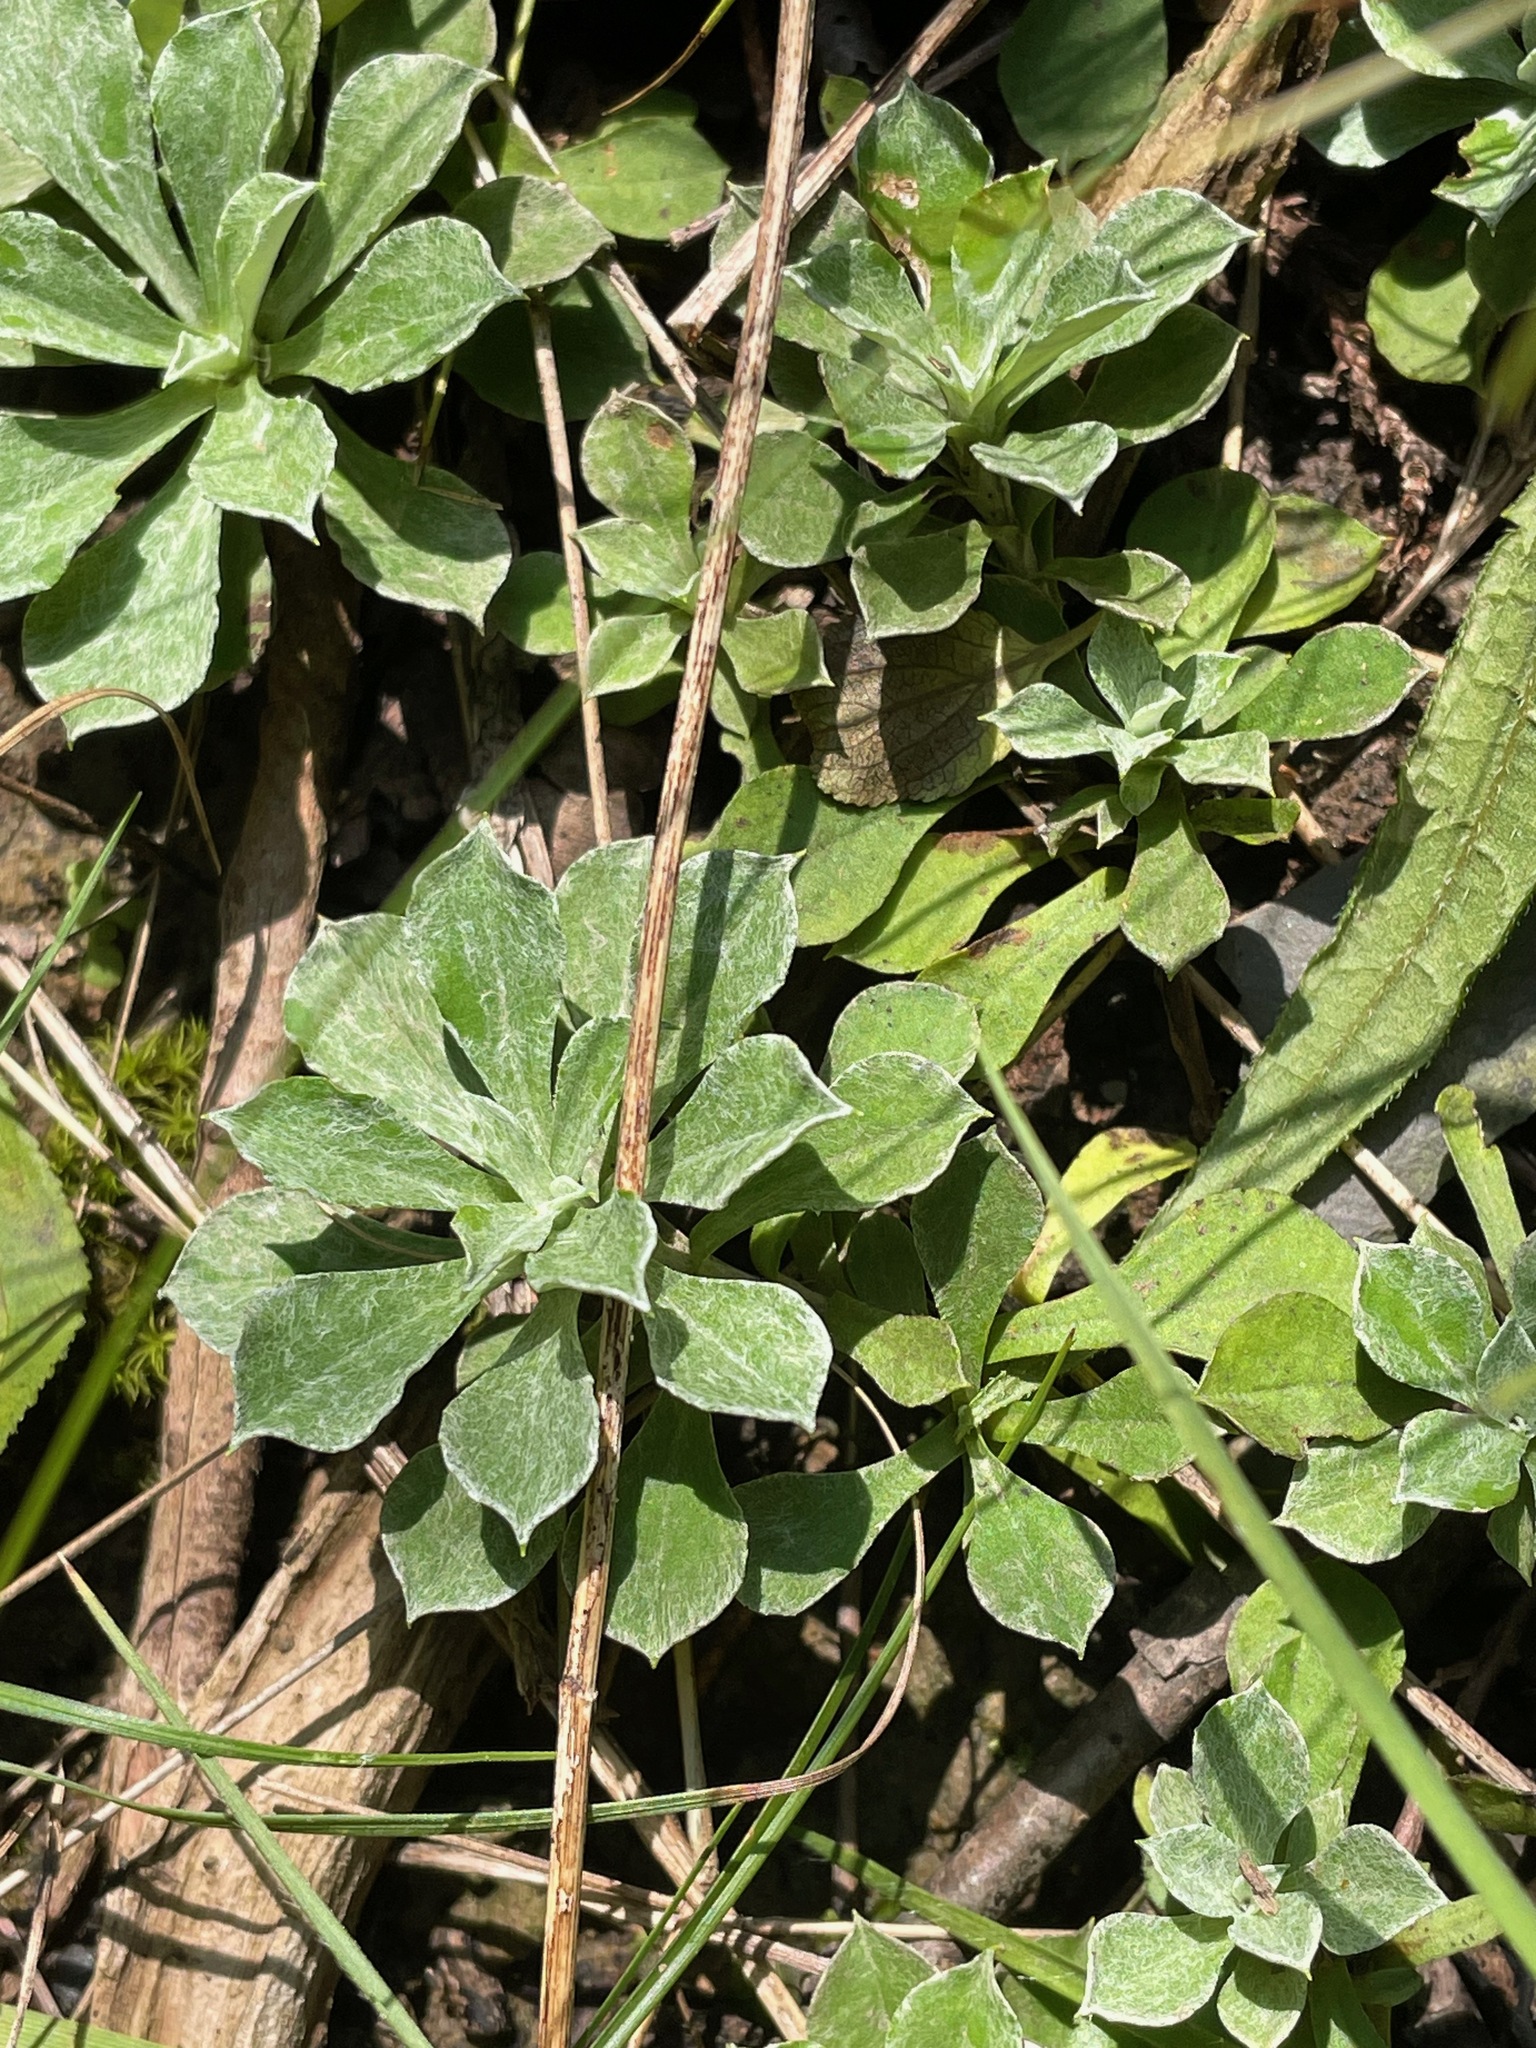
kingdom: Plantae
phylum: Tracheophyta
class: Magnoliopsida
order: Asterales
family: Asteraceae
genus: Antennaria
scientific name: Antennaria howellii
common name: Howell's pussytoes
